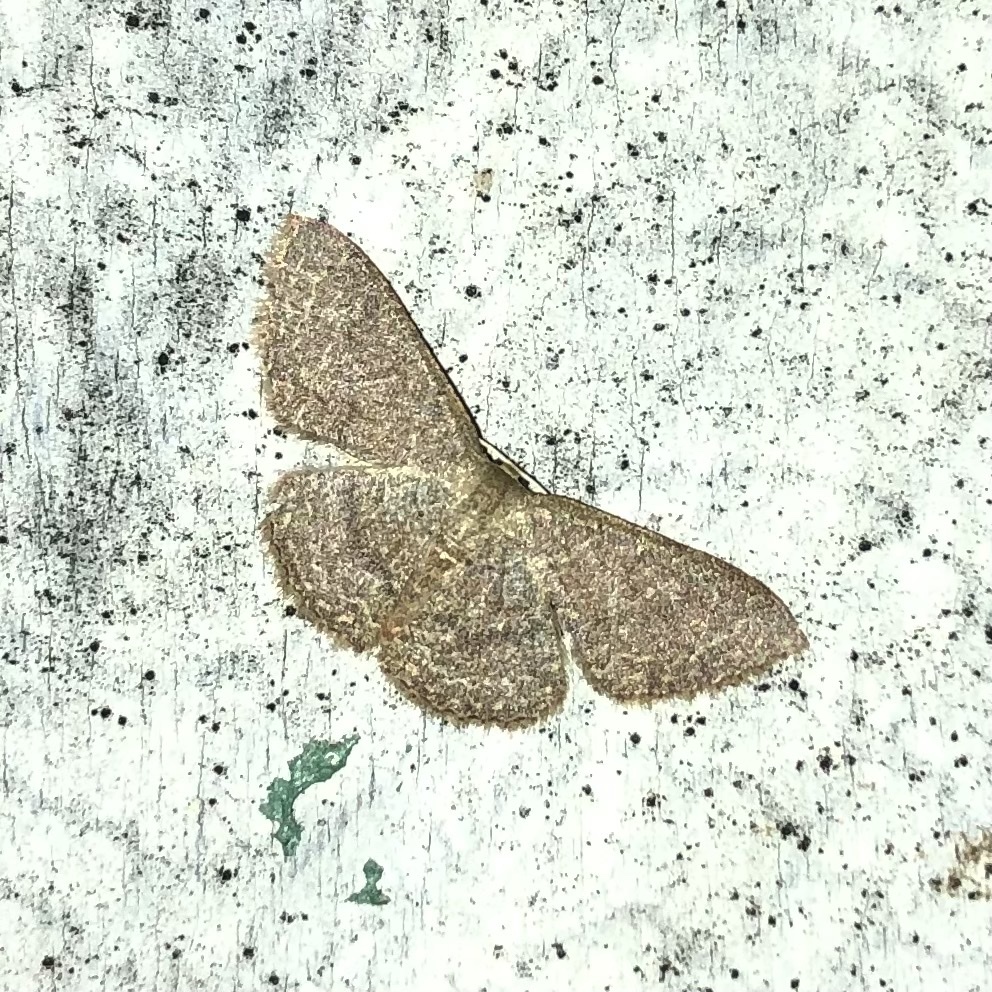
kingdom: Animalia
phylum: Arthropoda
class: Insecta
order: Lepidoptera
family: Geometridae
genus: Pleuroprucha
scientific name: Pleuroprucha insulsaria
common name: Common tan wave
